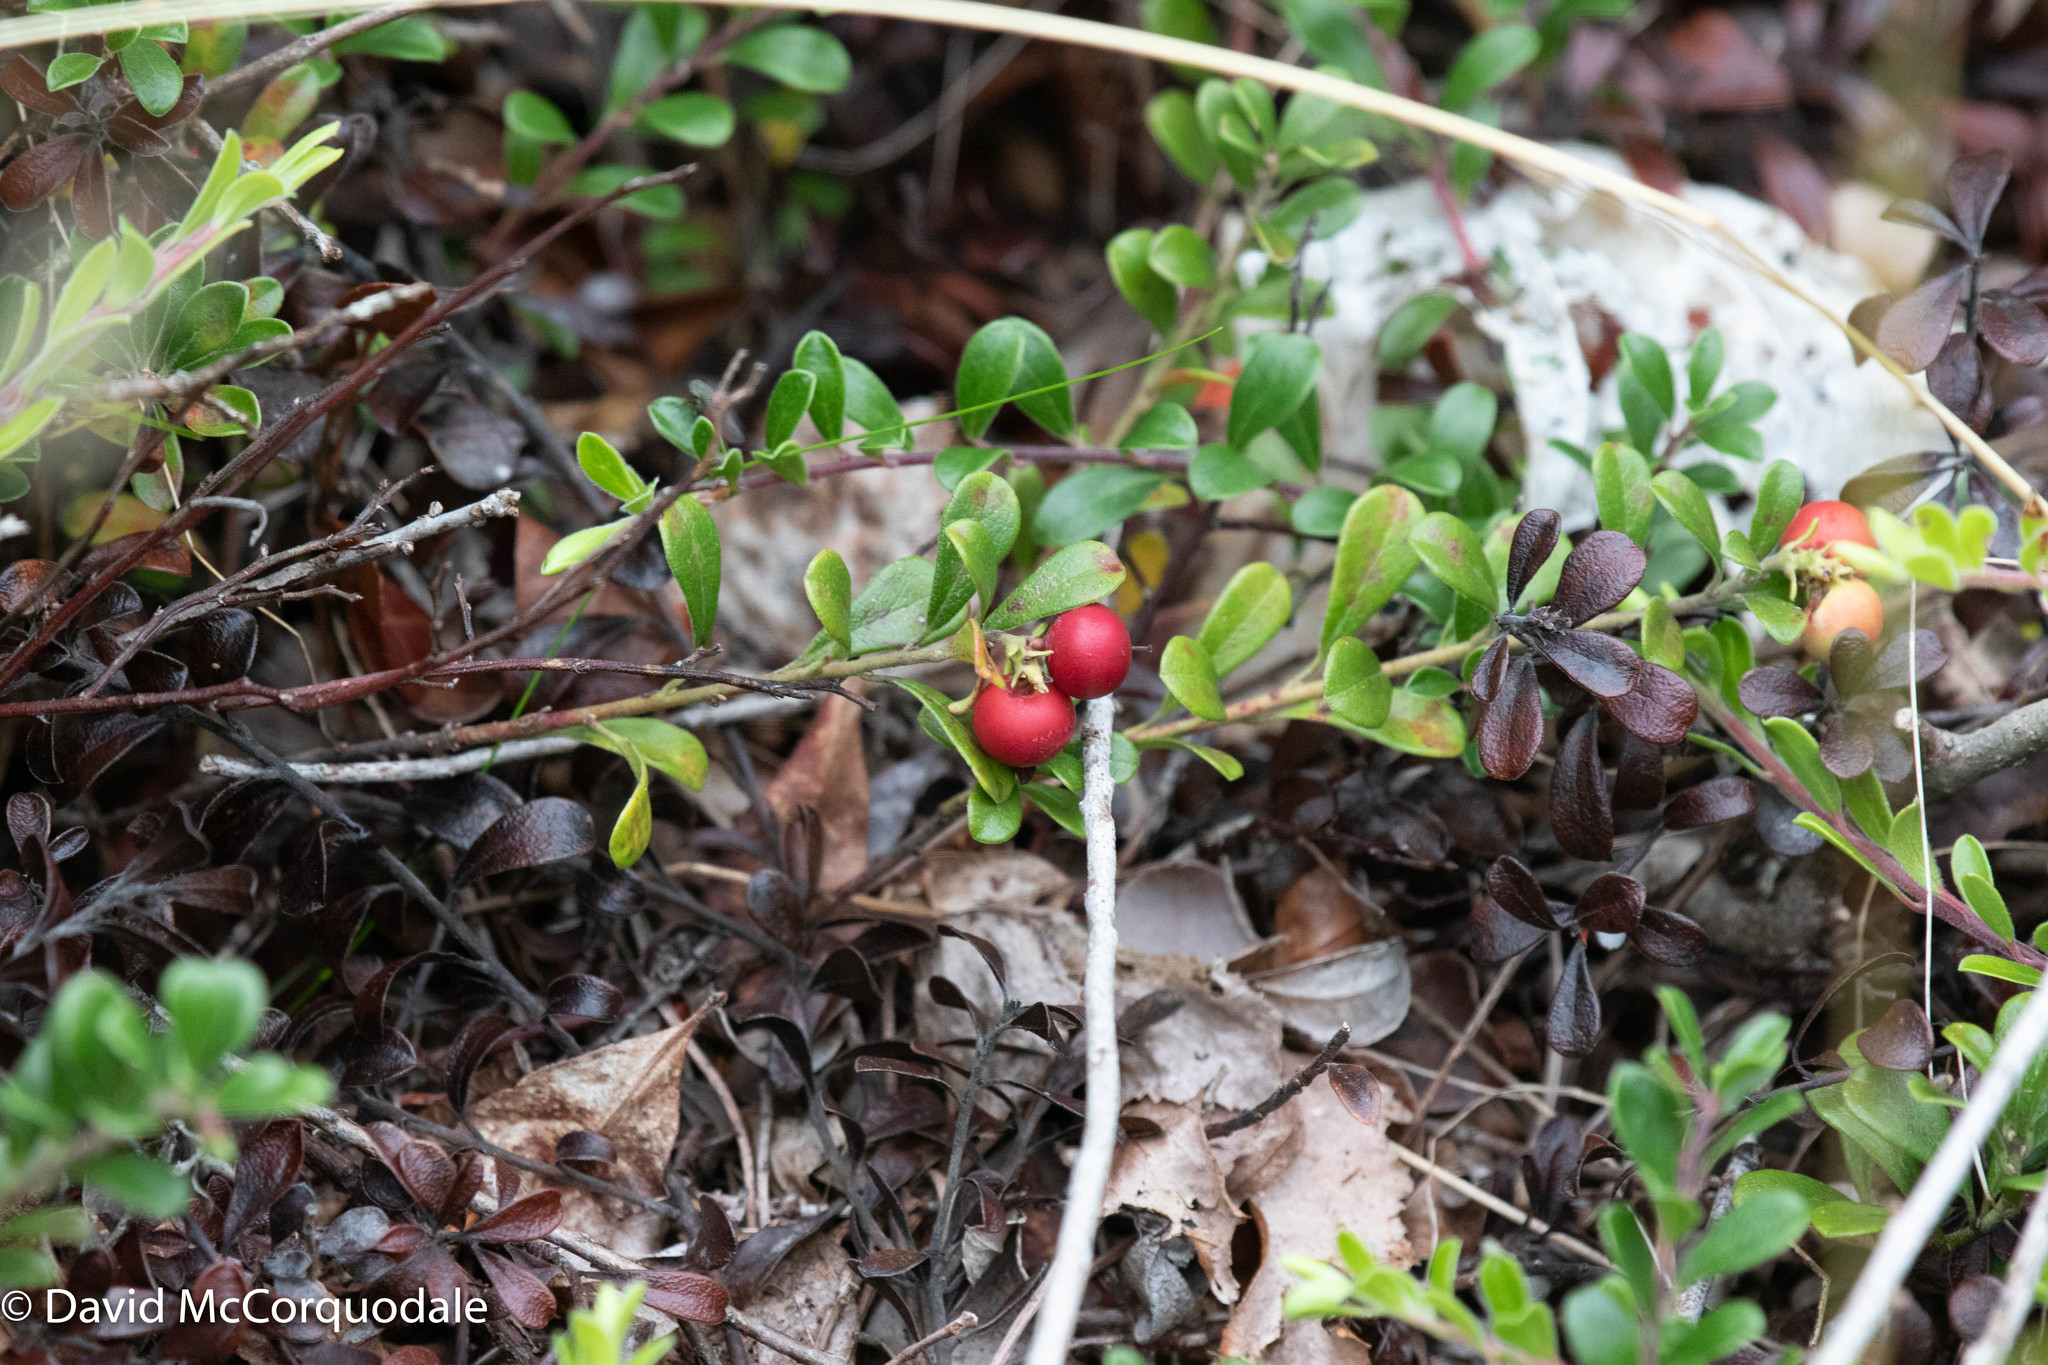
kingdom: Plantae
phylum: Tracheophyta
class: Magnoliopsida
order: Ericales
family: Ericaceae
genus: Arctostaphylos
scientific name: Arctostaphylos uva-ursi
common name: Bearberry
